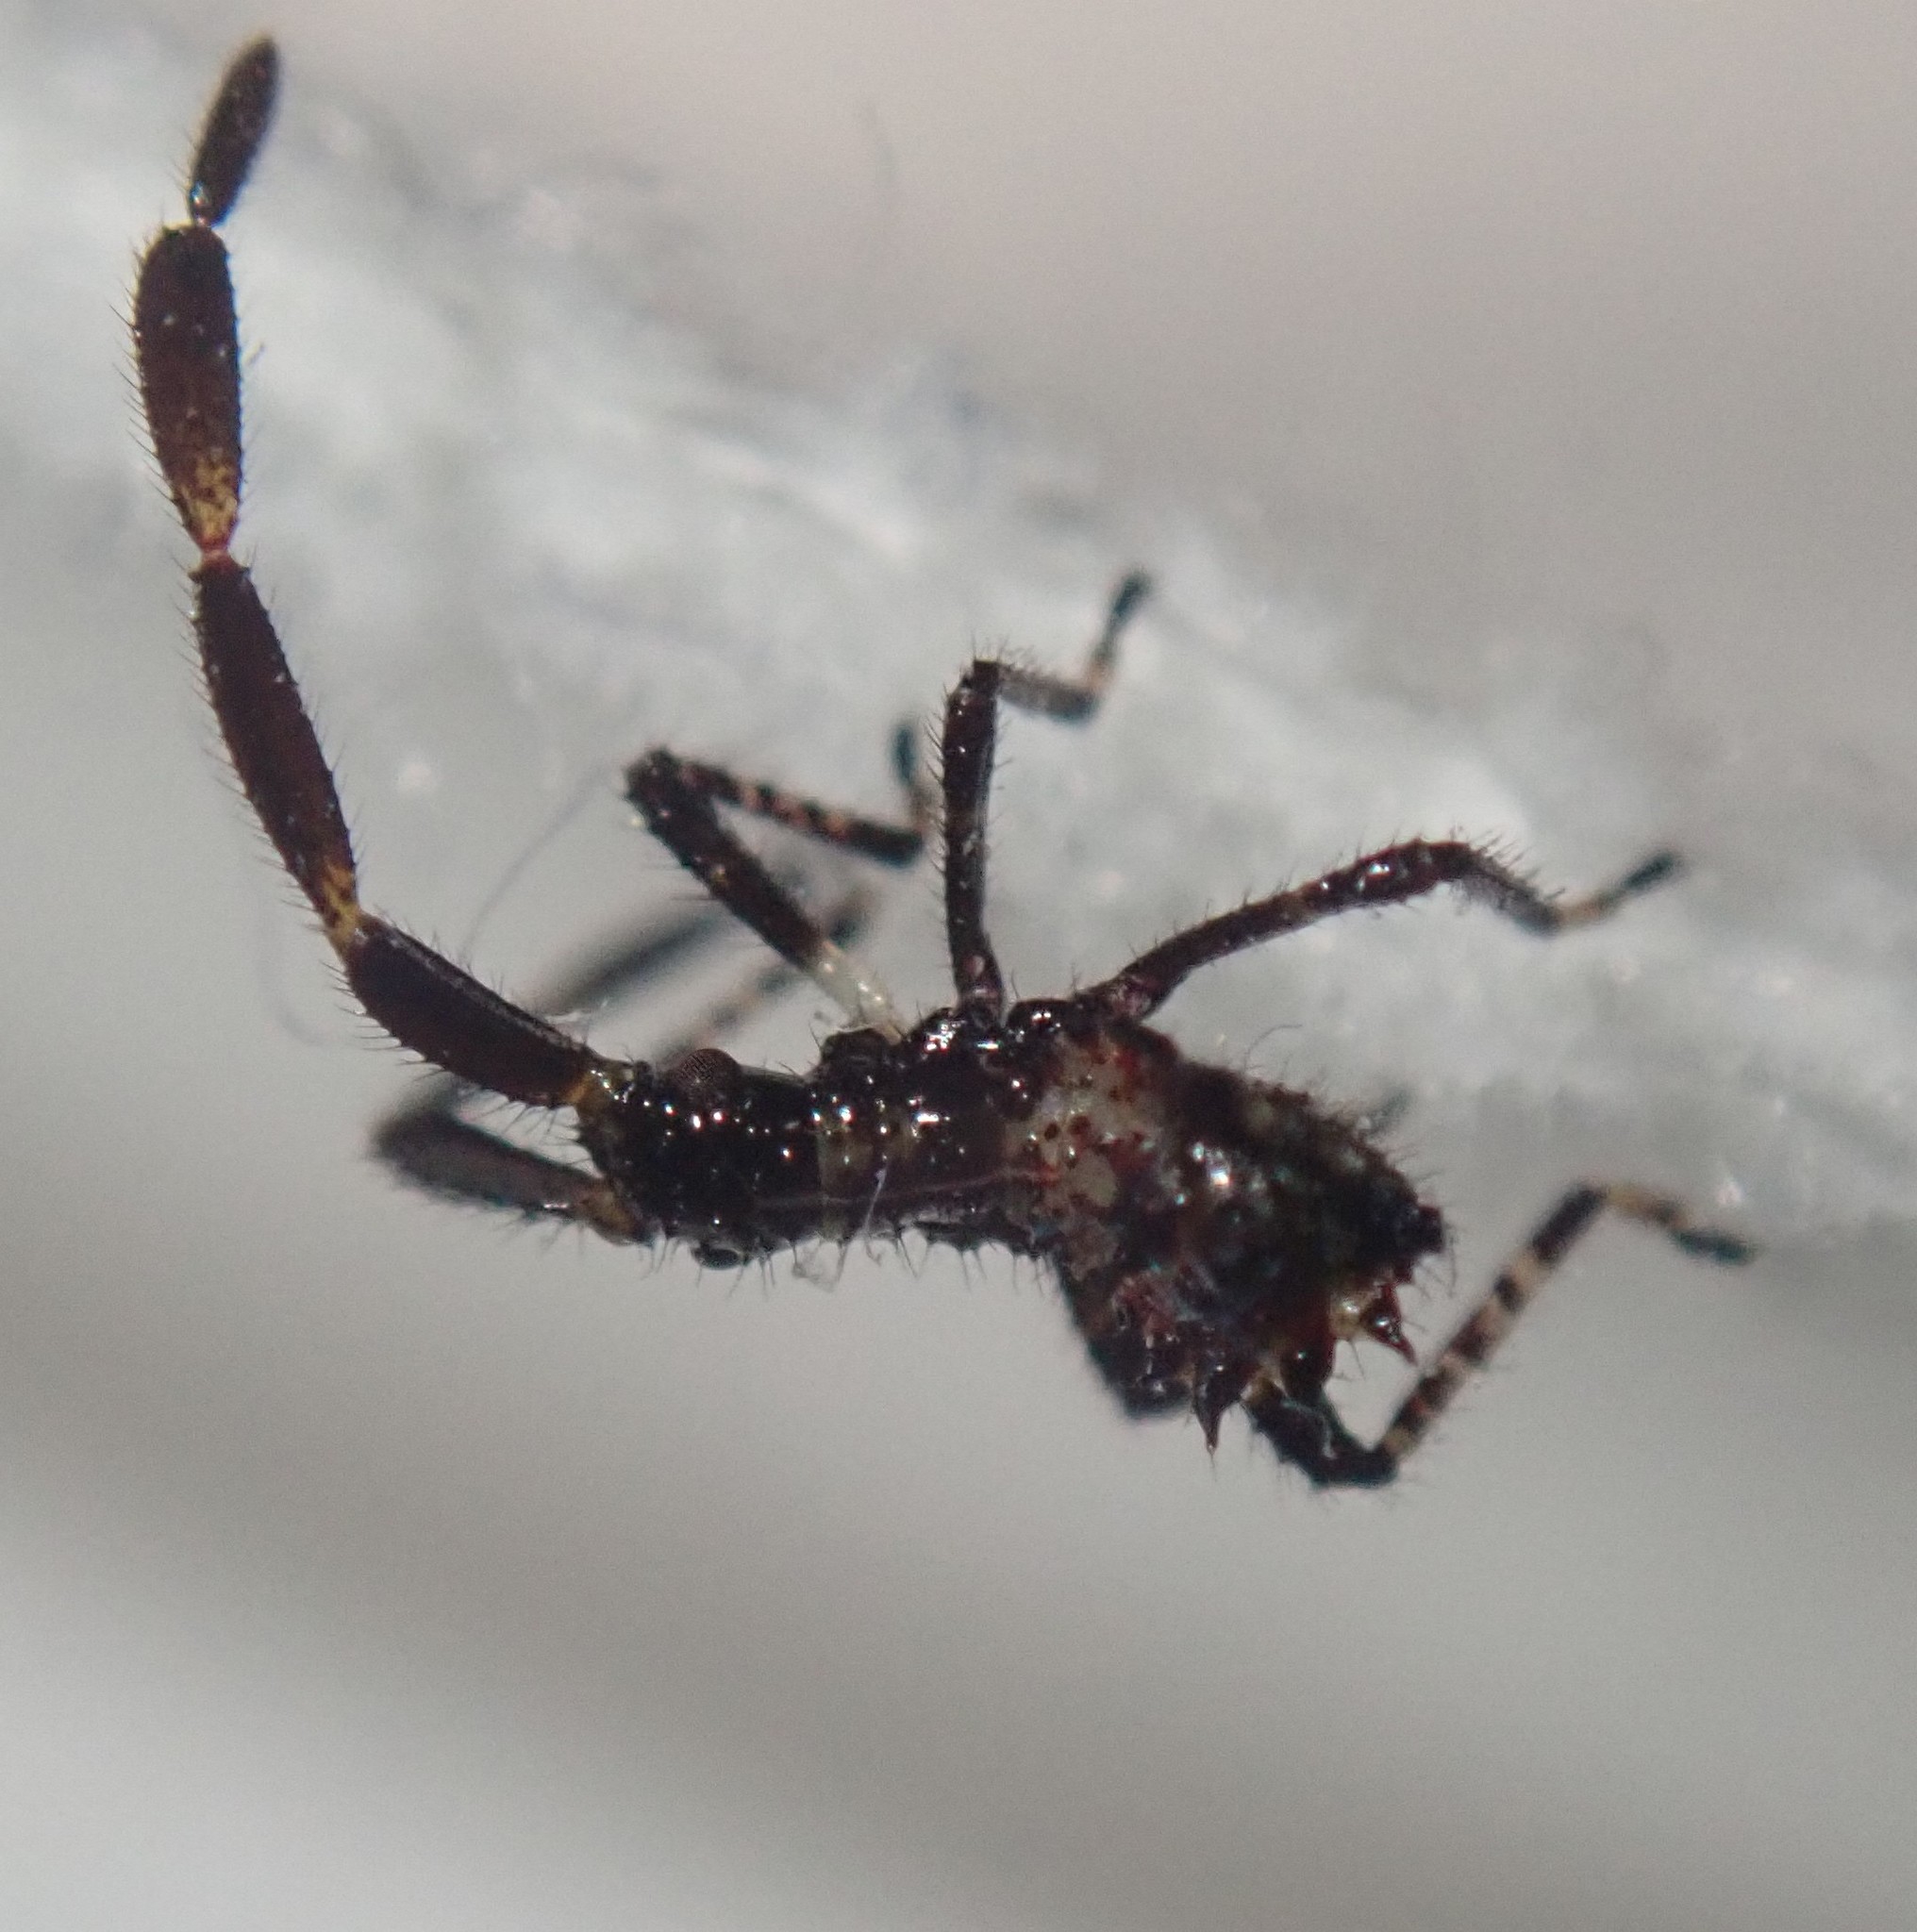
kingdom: Animalia
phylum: Arthropoda
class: Insecta
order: Hemiptera
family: Coreidae
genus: Coreus
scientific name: Coreus marginatus
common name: Dock bug
